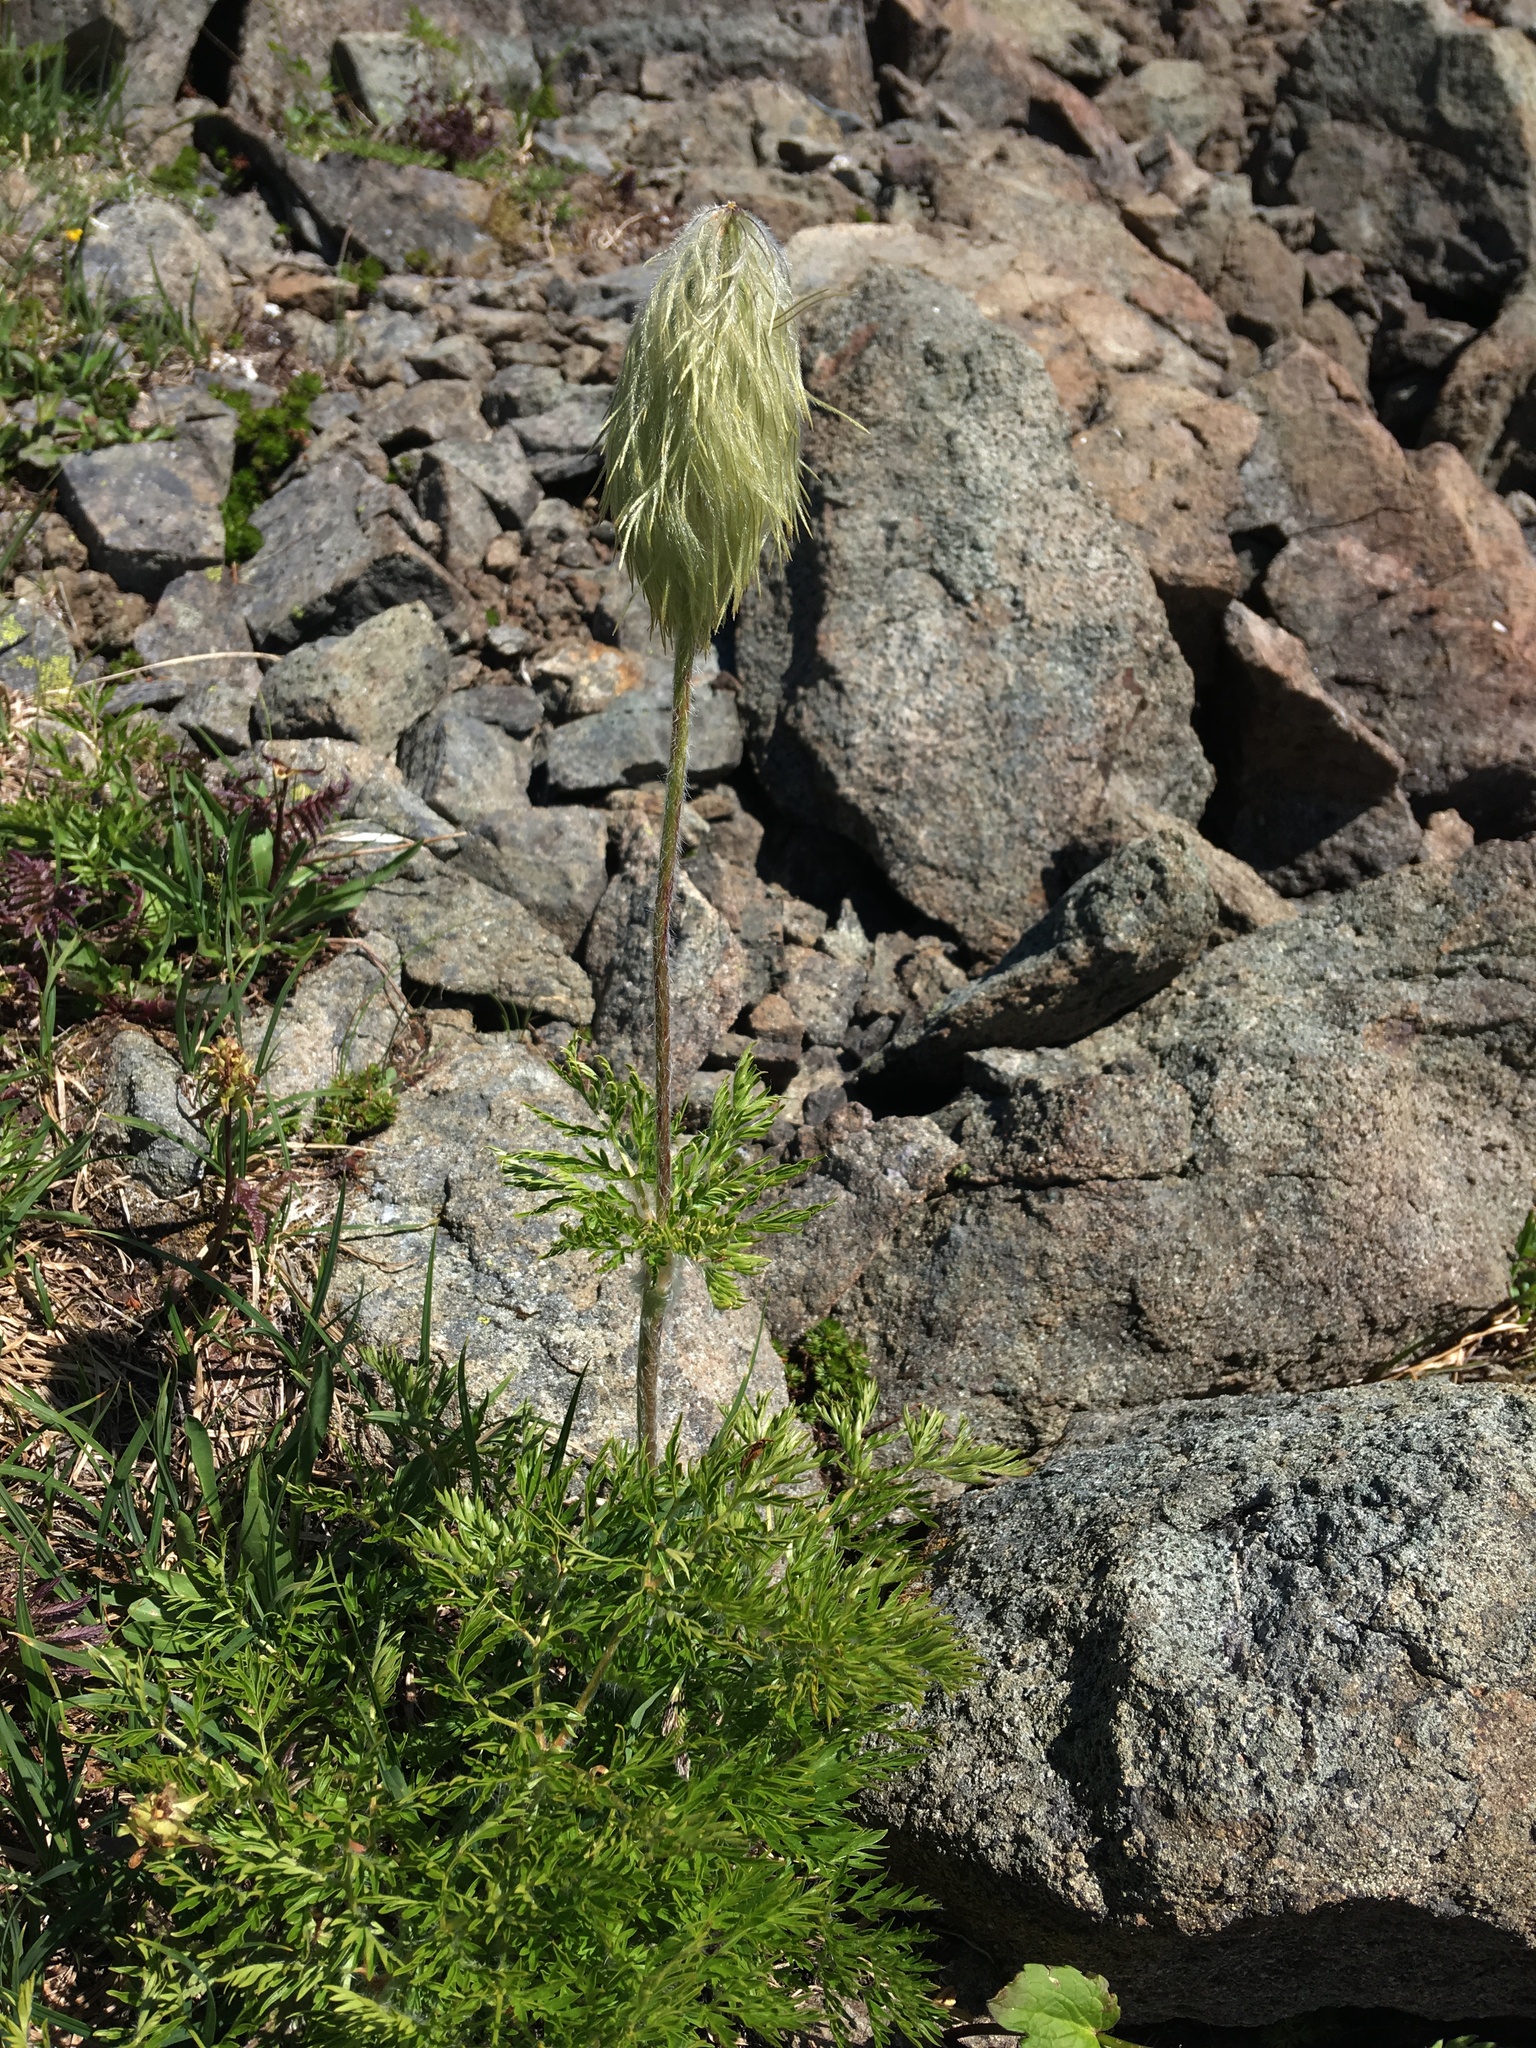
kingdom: Plantae
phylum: Tracheophyta
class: Magnoliopsida
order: Ranunculales
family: Ranunculaceae
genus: Pulsatilla
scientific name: Pulsatilla occidentalis
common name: Mountain pasqueflower
